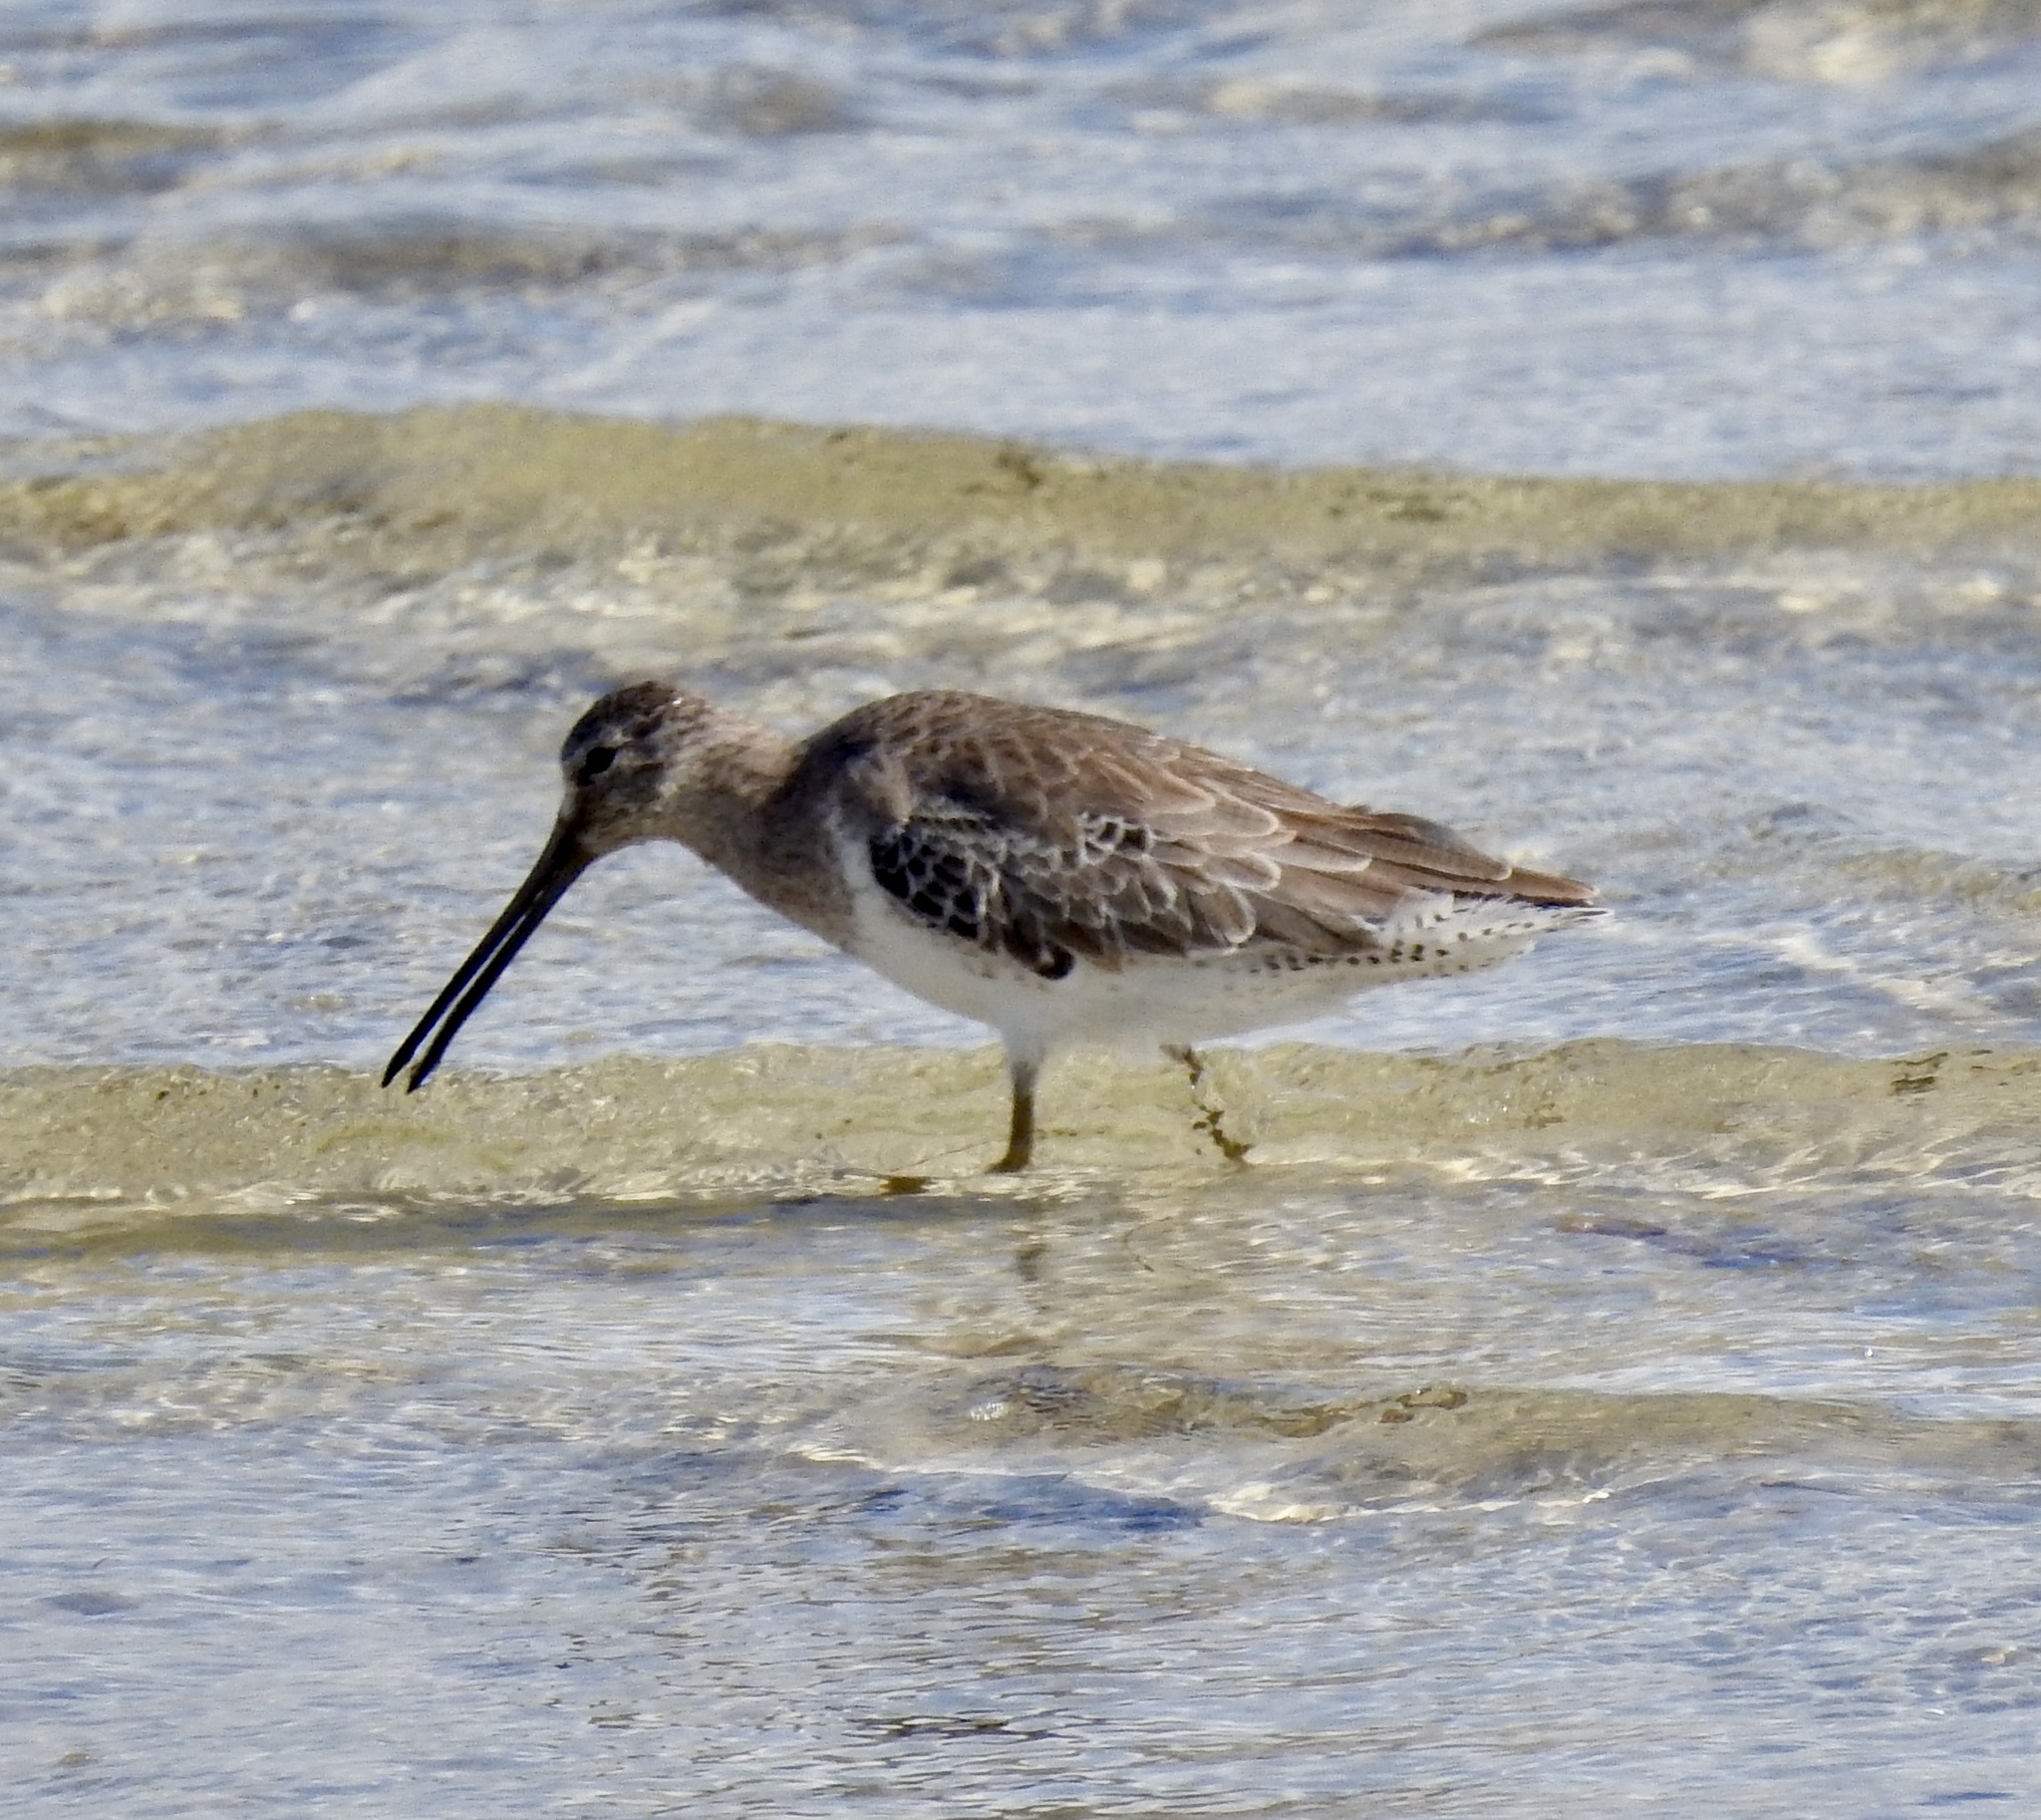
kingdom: Animalia
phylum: Chordata
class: Aves
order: Charadriiformes
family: Scolopacidae
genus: Limnodromus
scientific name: Limnodromus griseus
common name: Short-billed dowitcher
